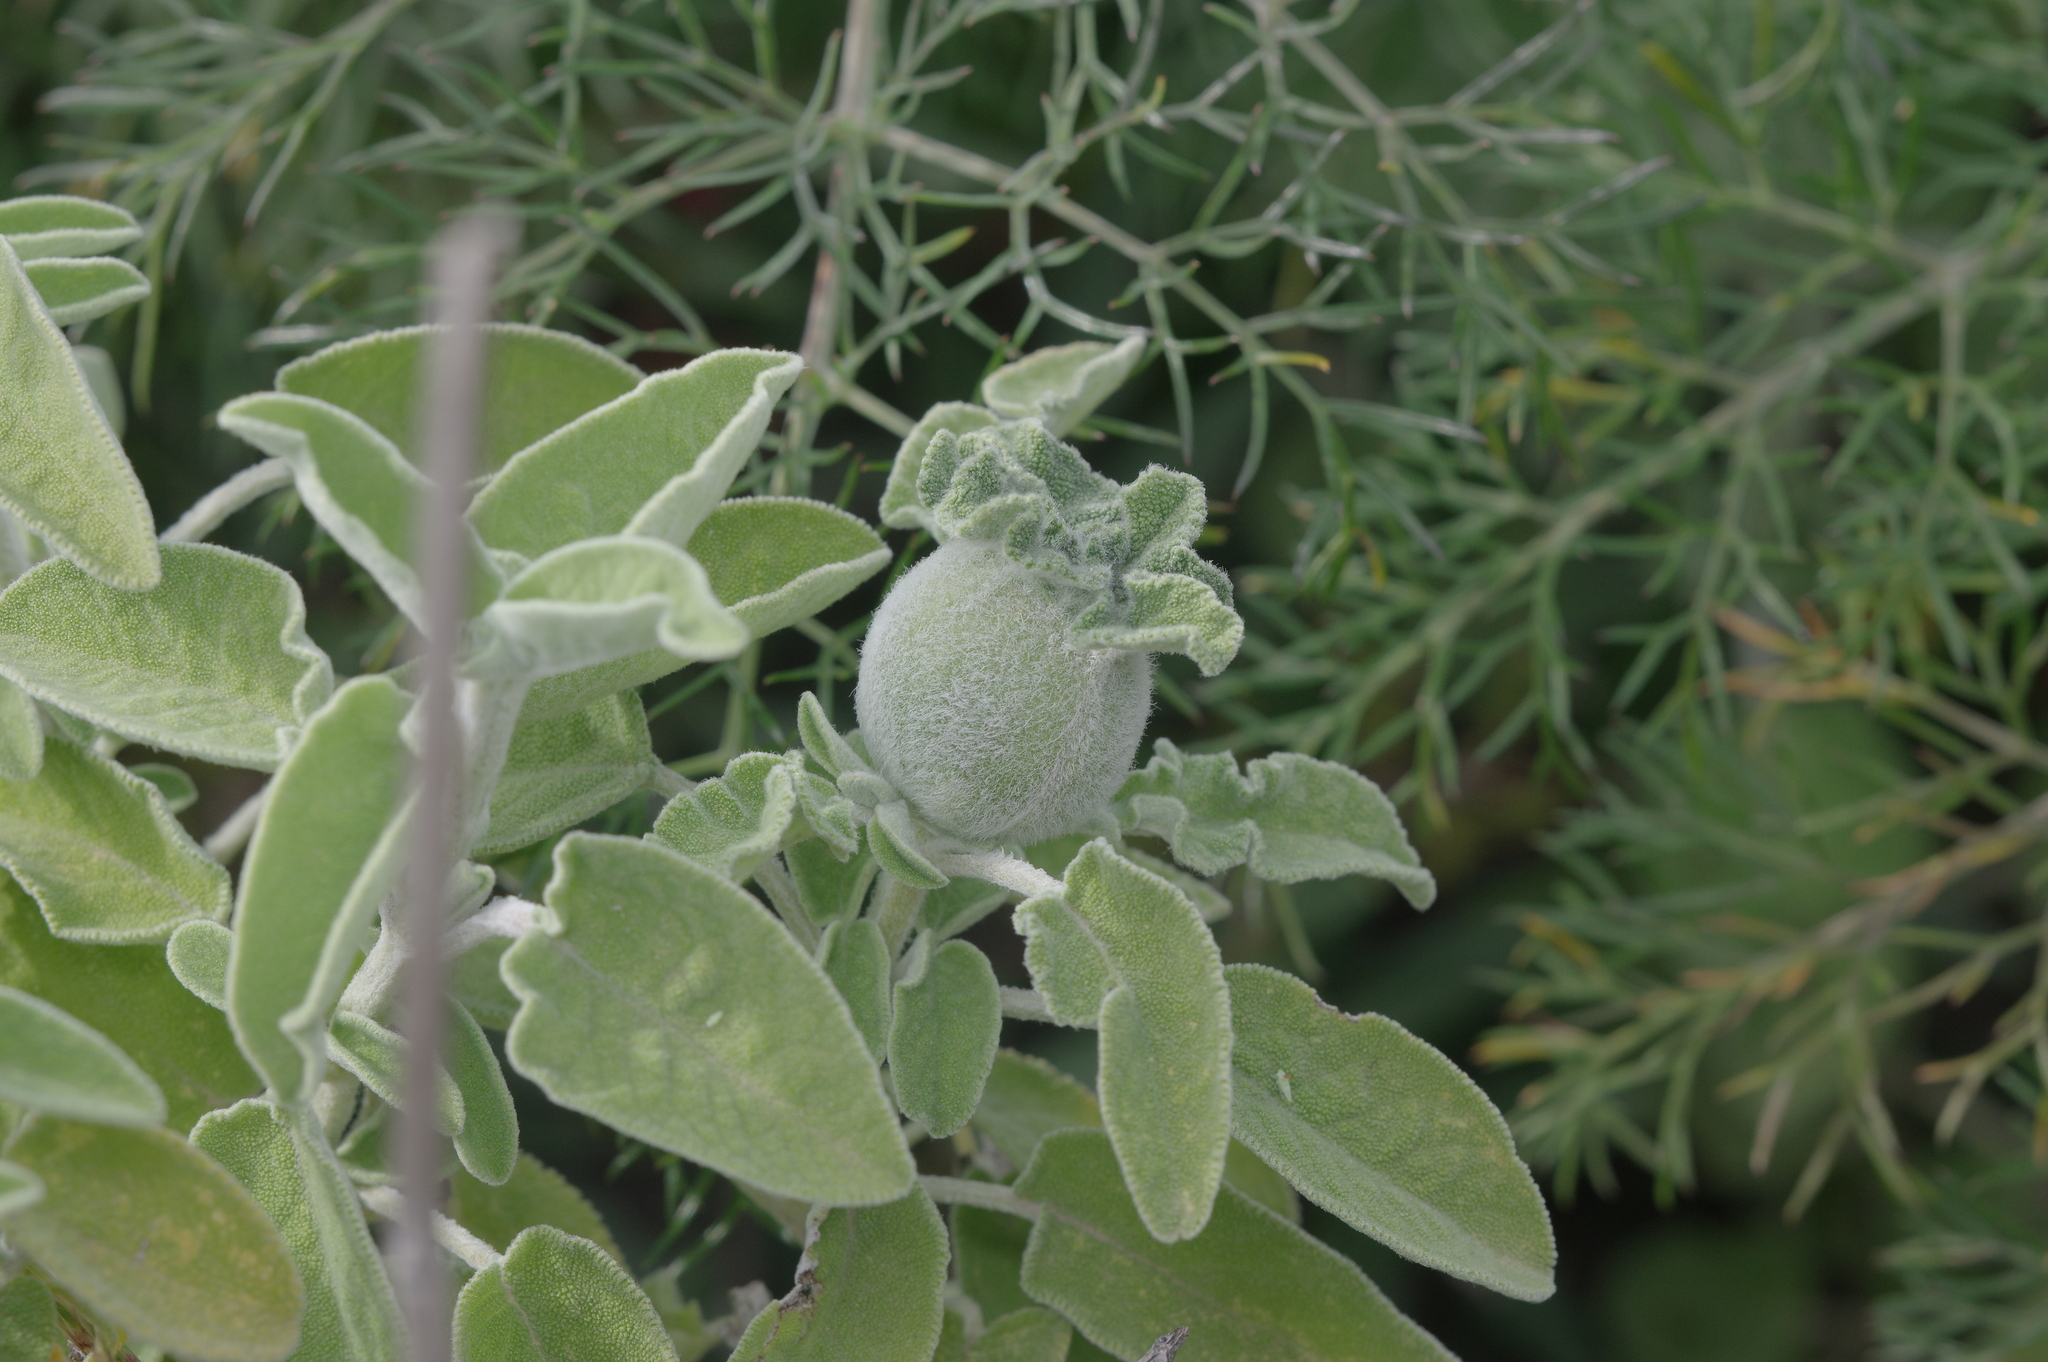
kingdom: Animalia
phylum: Arthropoda
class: Insecta
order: Hymenoptera
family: Cynipidae
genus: Rhodus
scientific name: Rhodus
